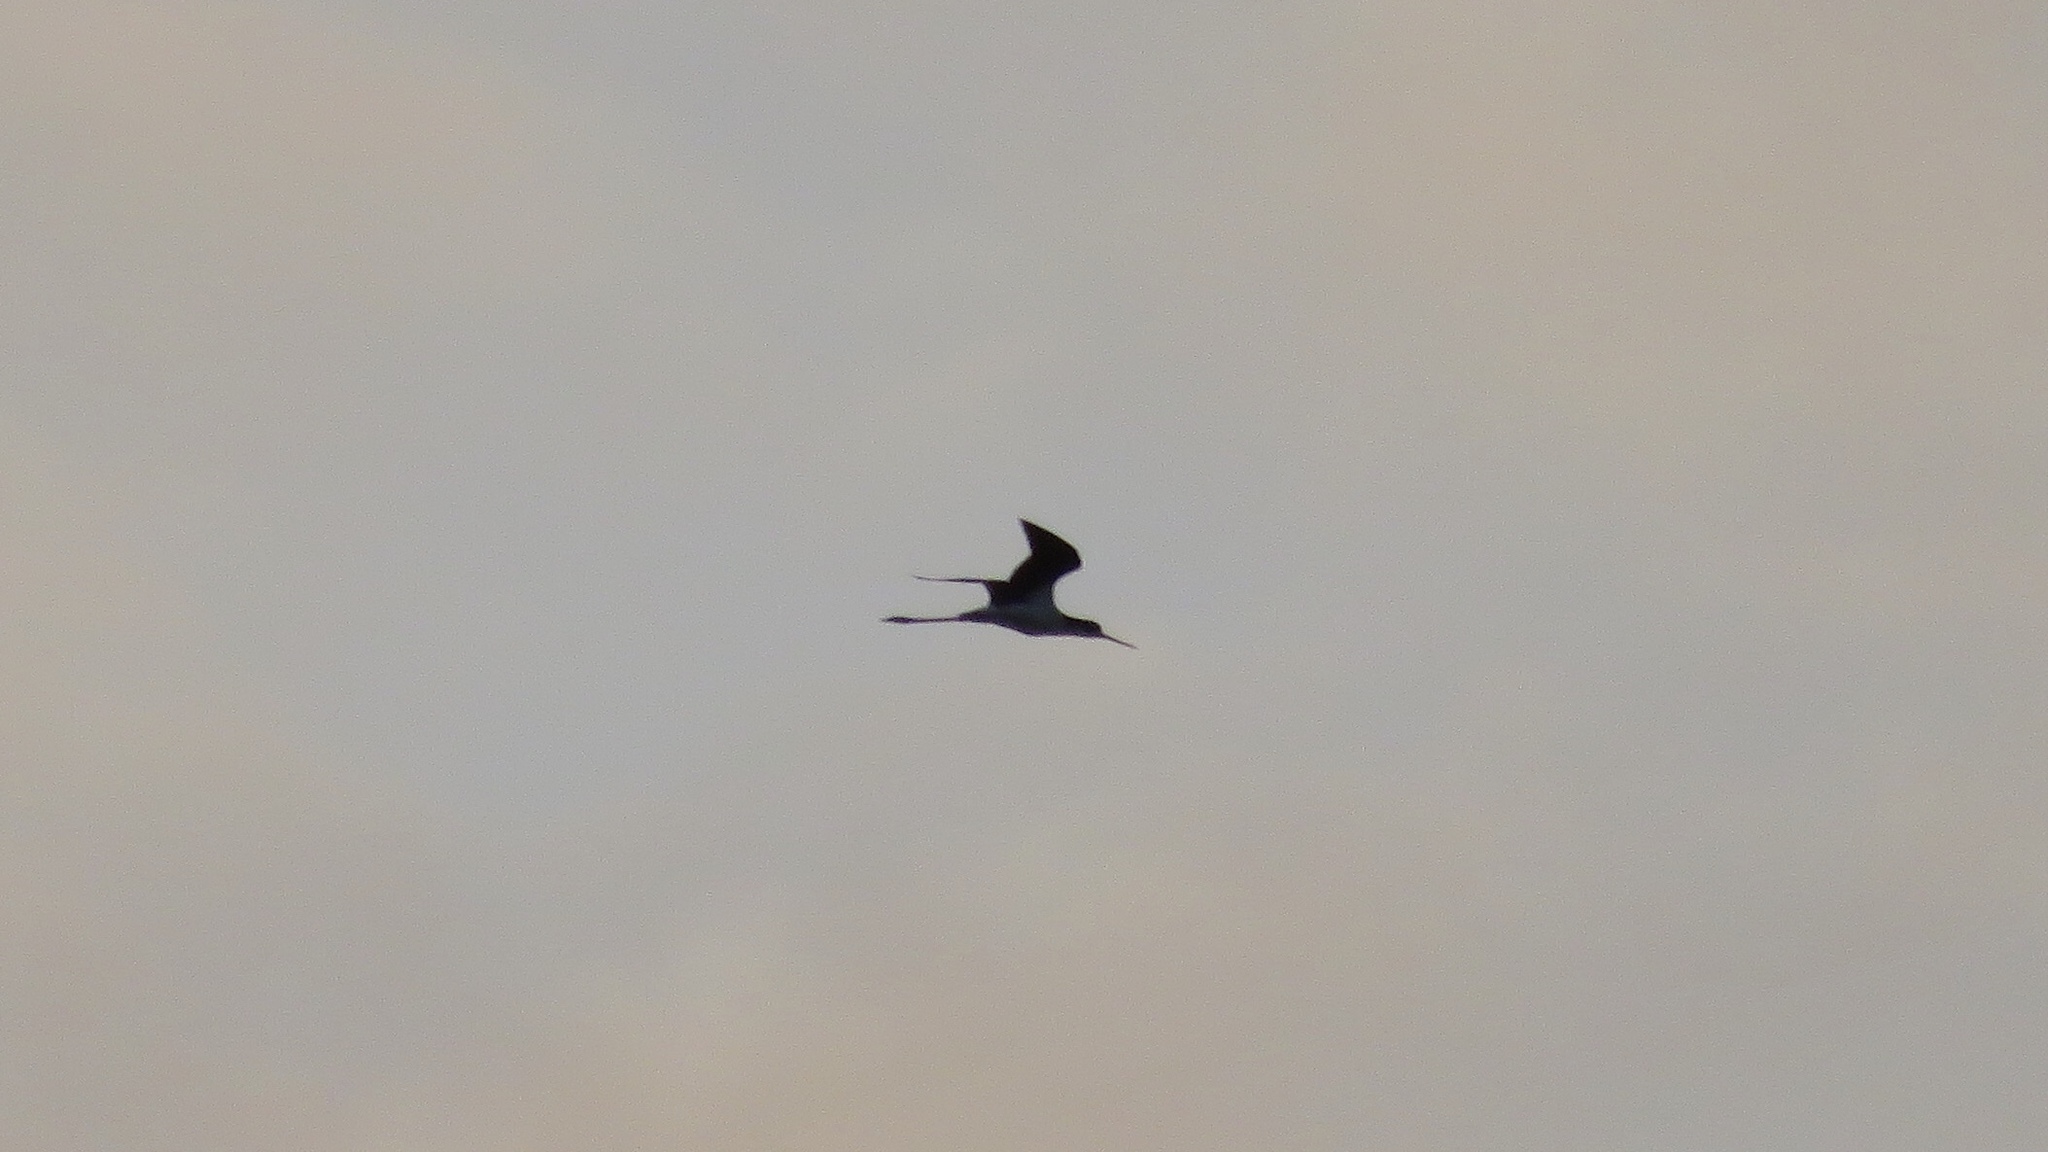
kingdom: Animalia
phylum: Chordata
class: Aves
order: Charadriiformes
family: Recurvirostridae
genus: Himantopus
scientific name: Himantopus mexicanus
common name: Black-necked stilt
